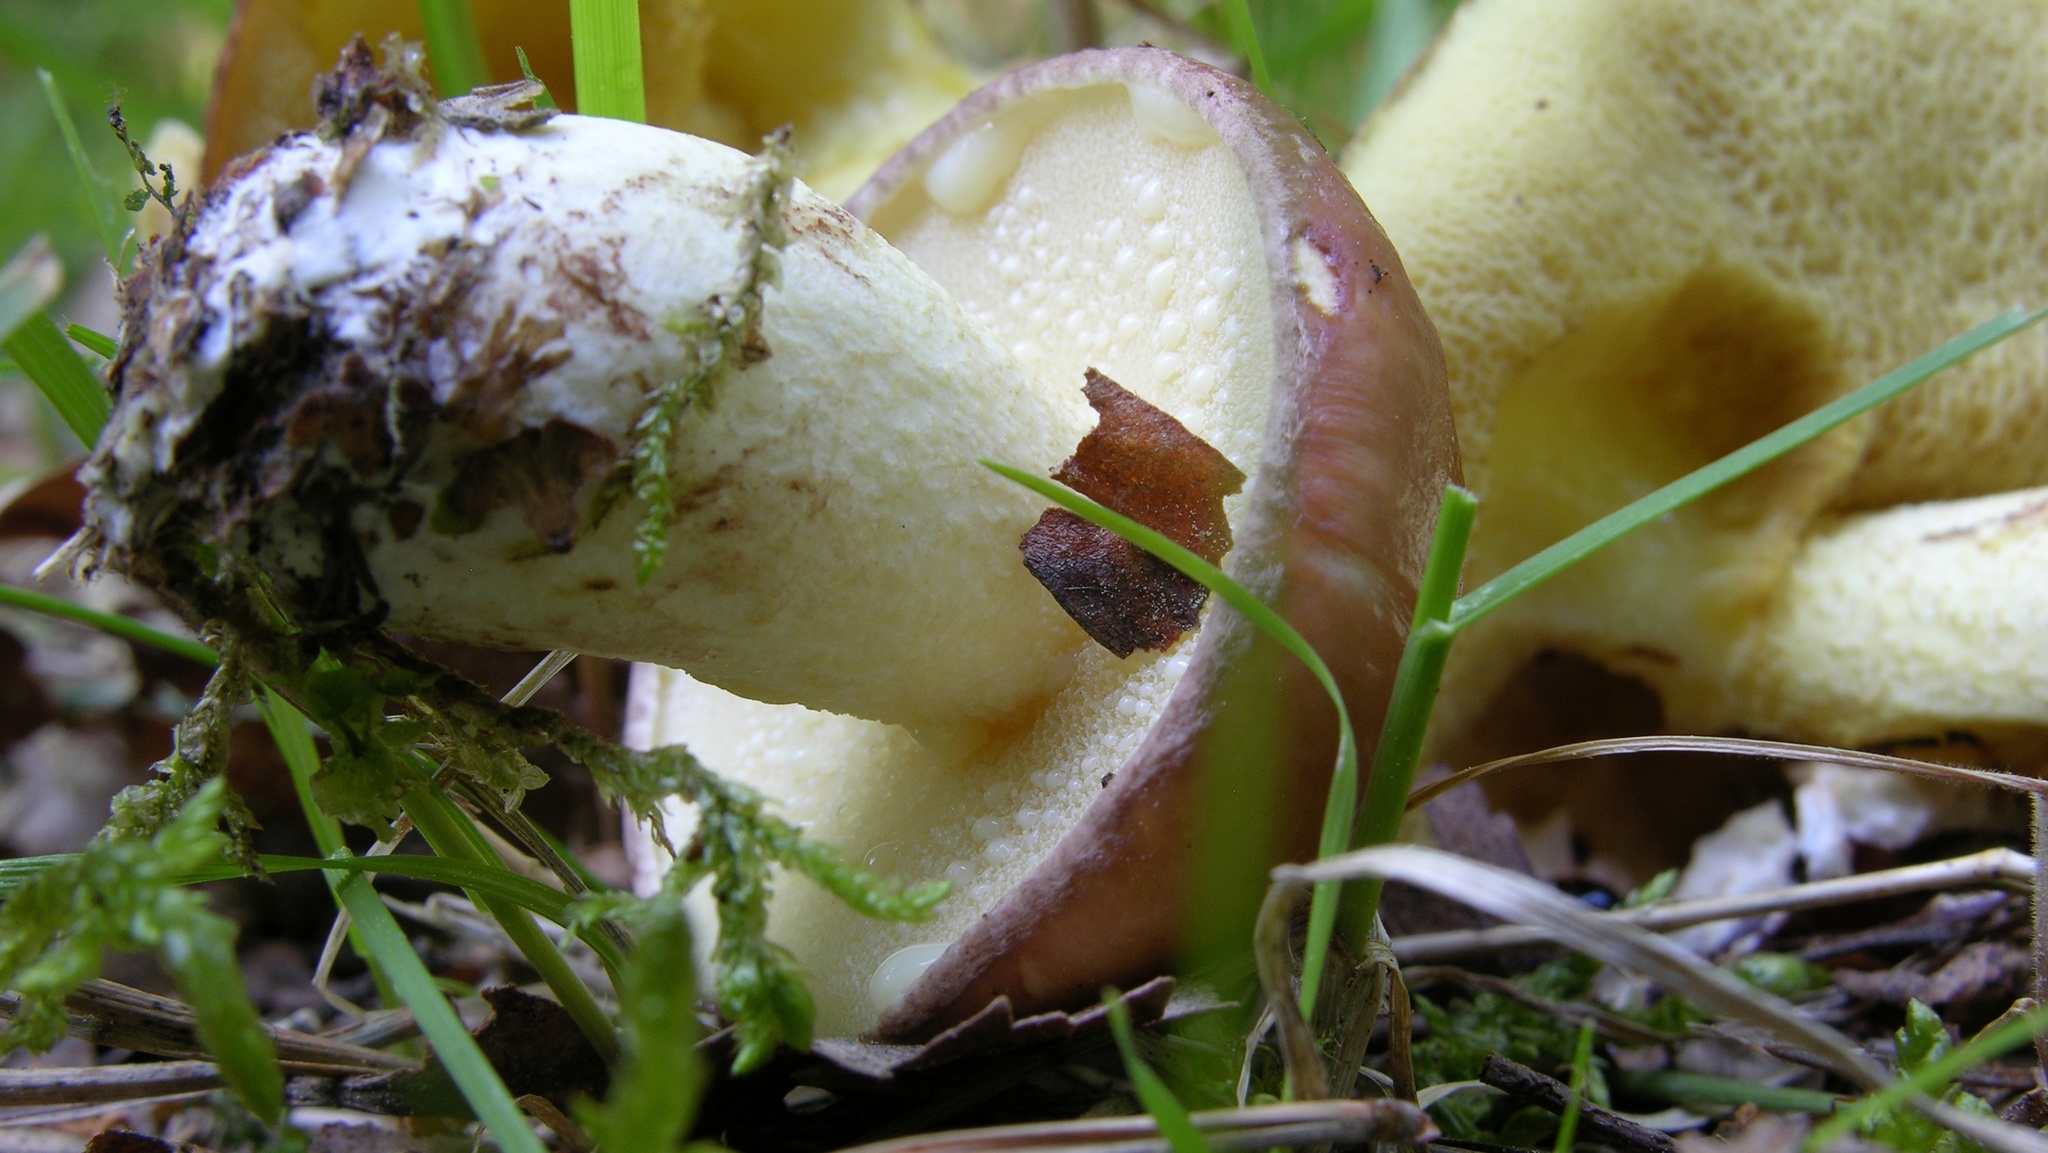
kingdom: Fungi
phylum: Basidiomycota
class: Agaricomycetes
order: Boletales
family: Suillaceae
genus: Suillus
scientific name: Suillus granulatus
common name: Weeping bolete
